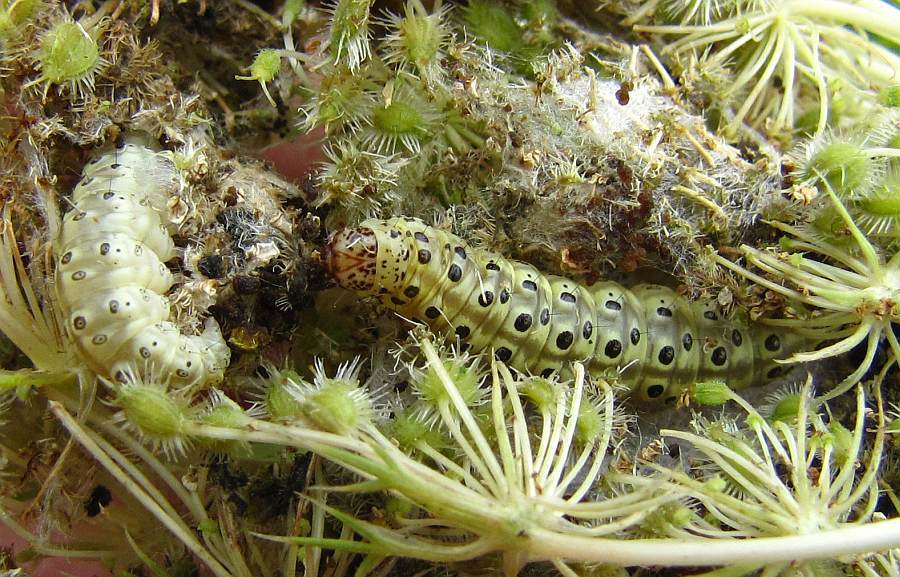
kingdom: Animalia
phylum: Arthropoda
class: Insecta
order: Lepidoptera
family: Crambidae
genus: Sitochroa
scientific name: Sitochroa palealis
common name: Greenish-yellow sitochroa moth
